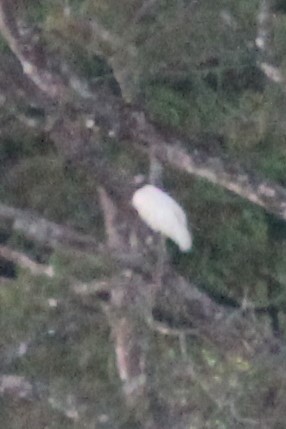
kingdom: Animalia
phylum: Chordata
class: Aves
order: Ciconiiformes
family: Ciconiidae
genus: Mycteria
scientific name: Mycteria americana
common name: Wood stork
